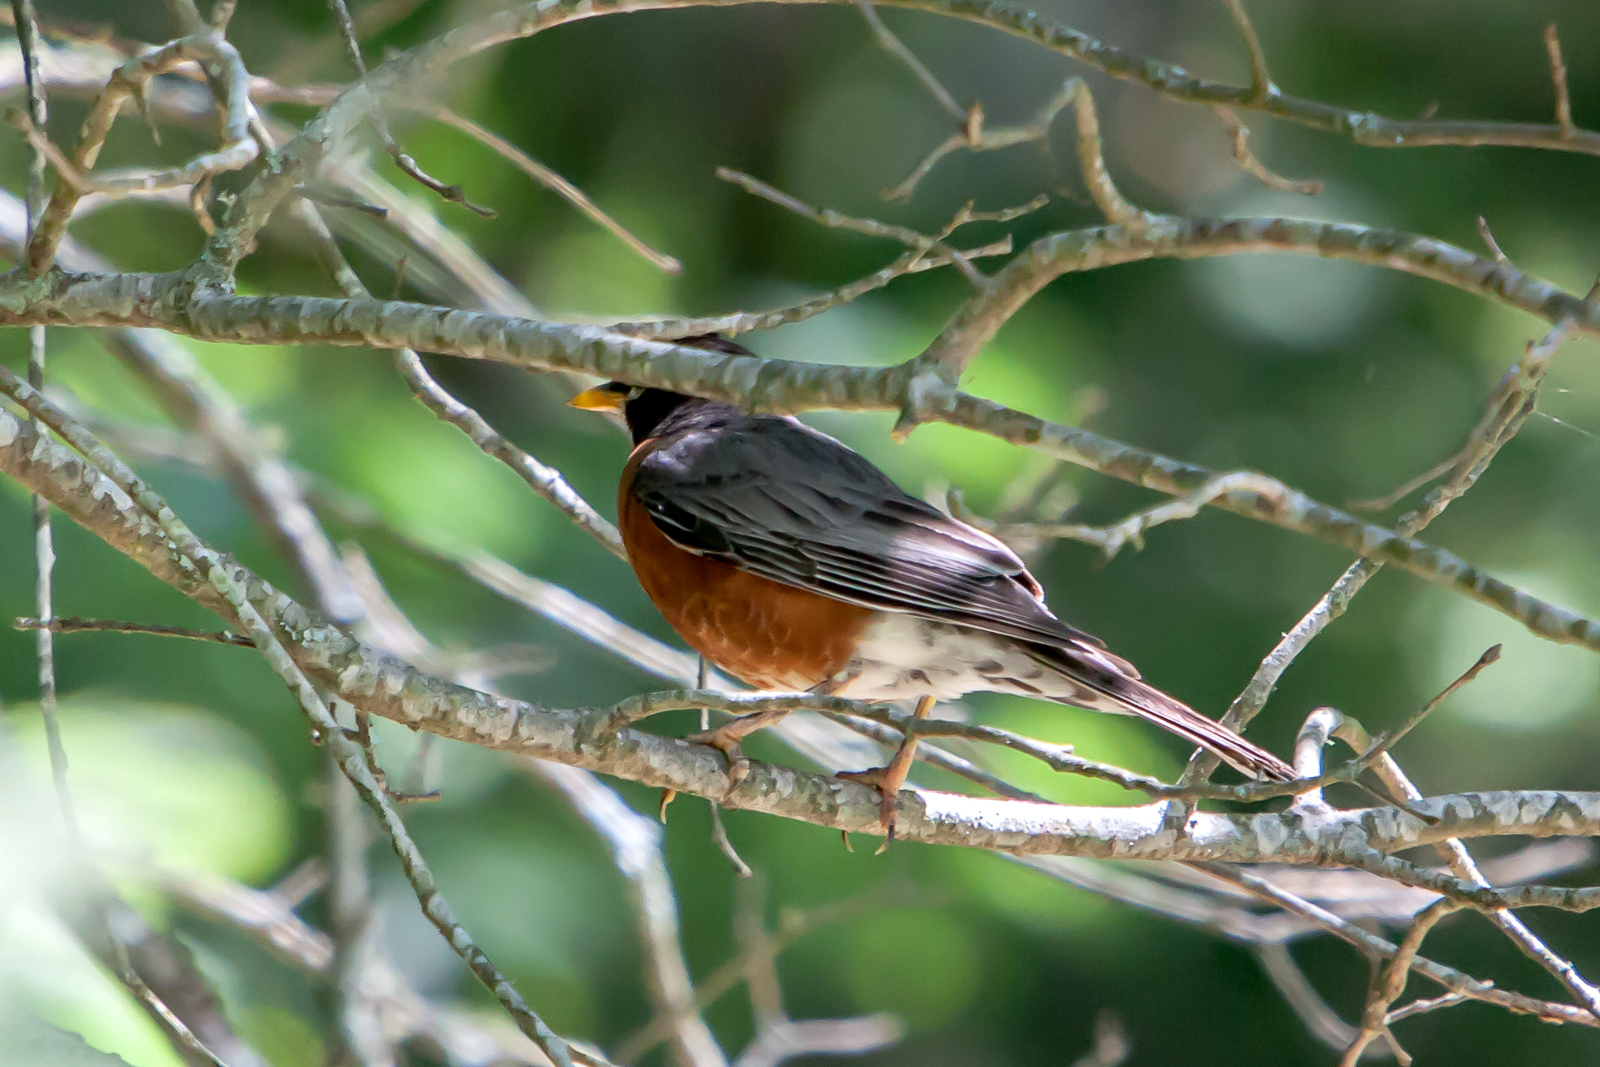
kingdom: Animalia
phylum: Chordata
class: Aves
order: Passeriformes
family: Turdidae
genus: Turdus
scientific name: Turdus migratorius
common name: American robin
